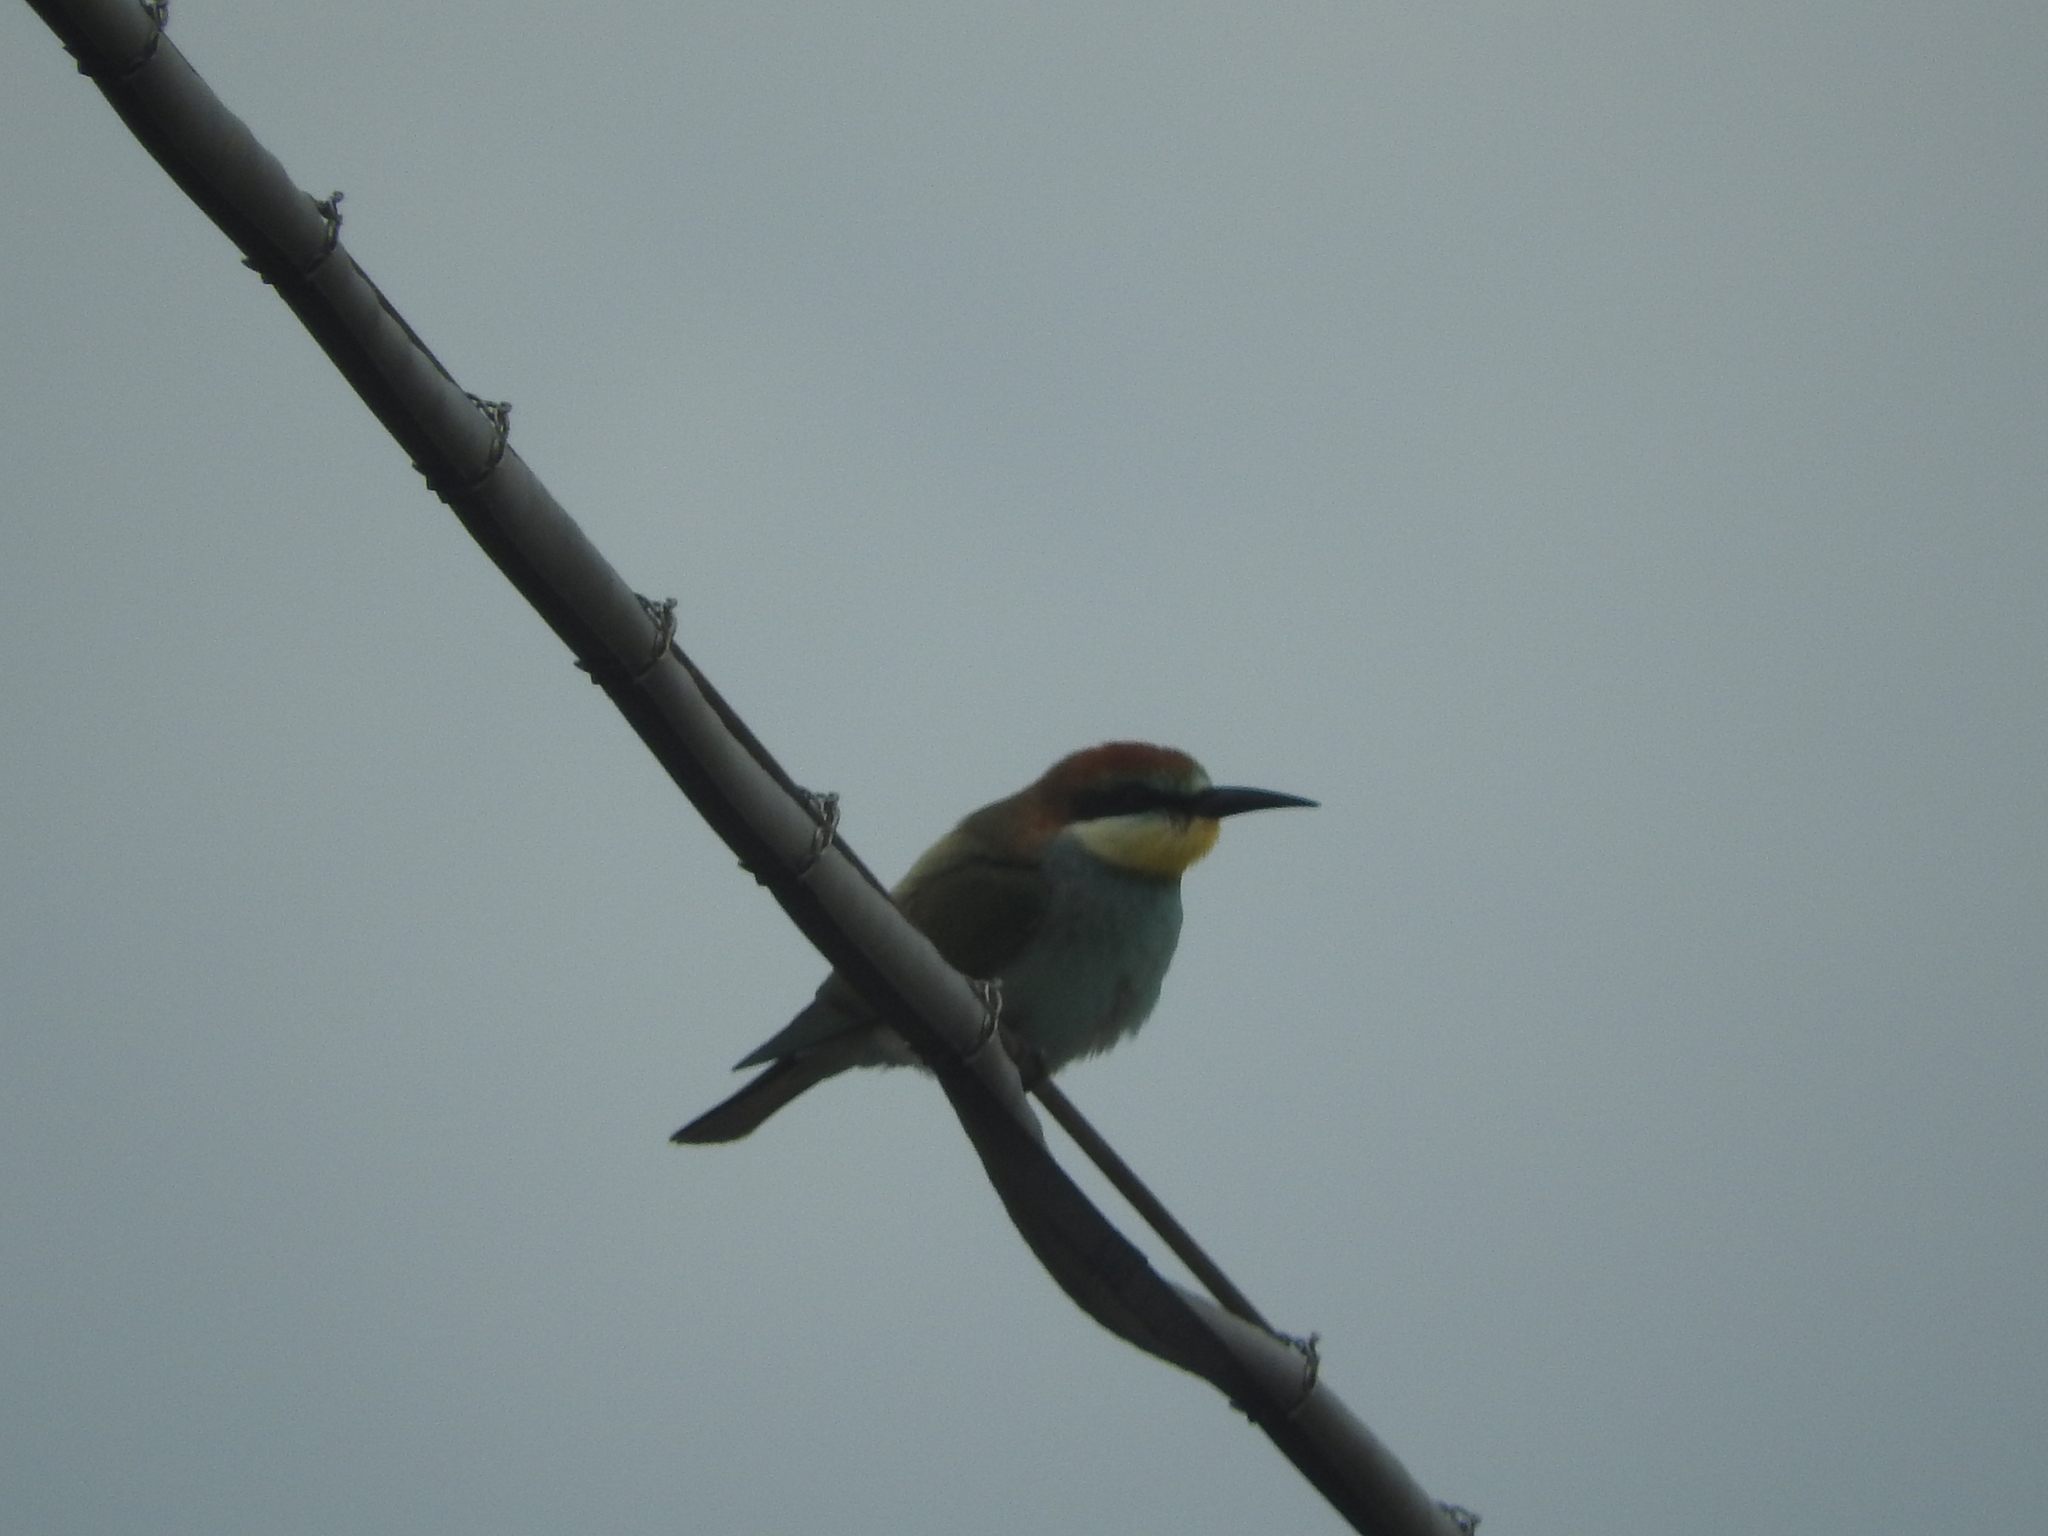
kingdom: Animalia
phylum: Chordata
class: Aves
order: Coraciiformes
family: Meropidae
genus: Merops
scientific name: Merops apiaster
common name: European bee-eater
